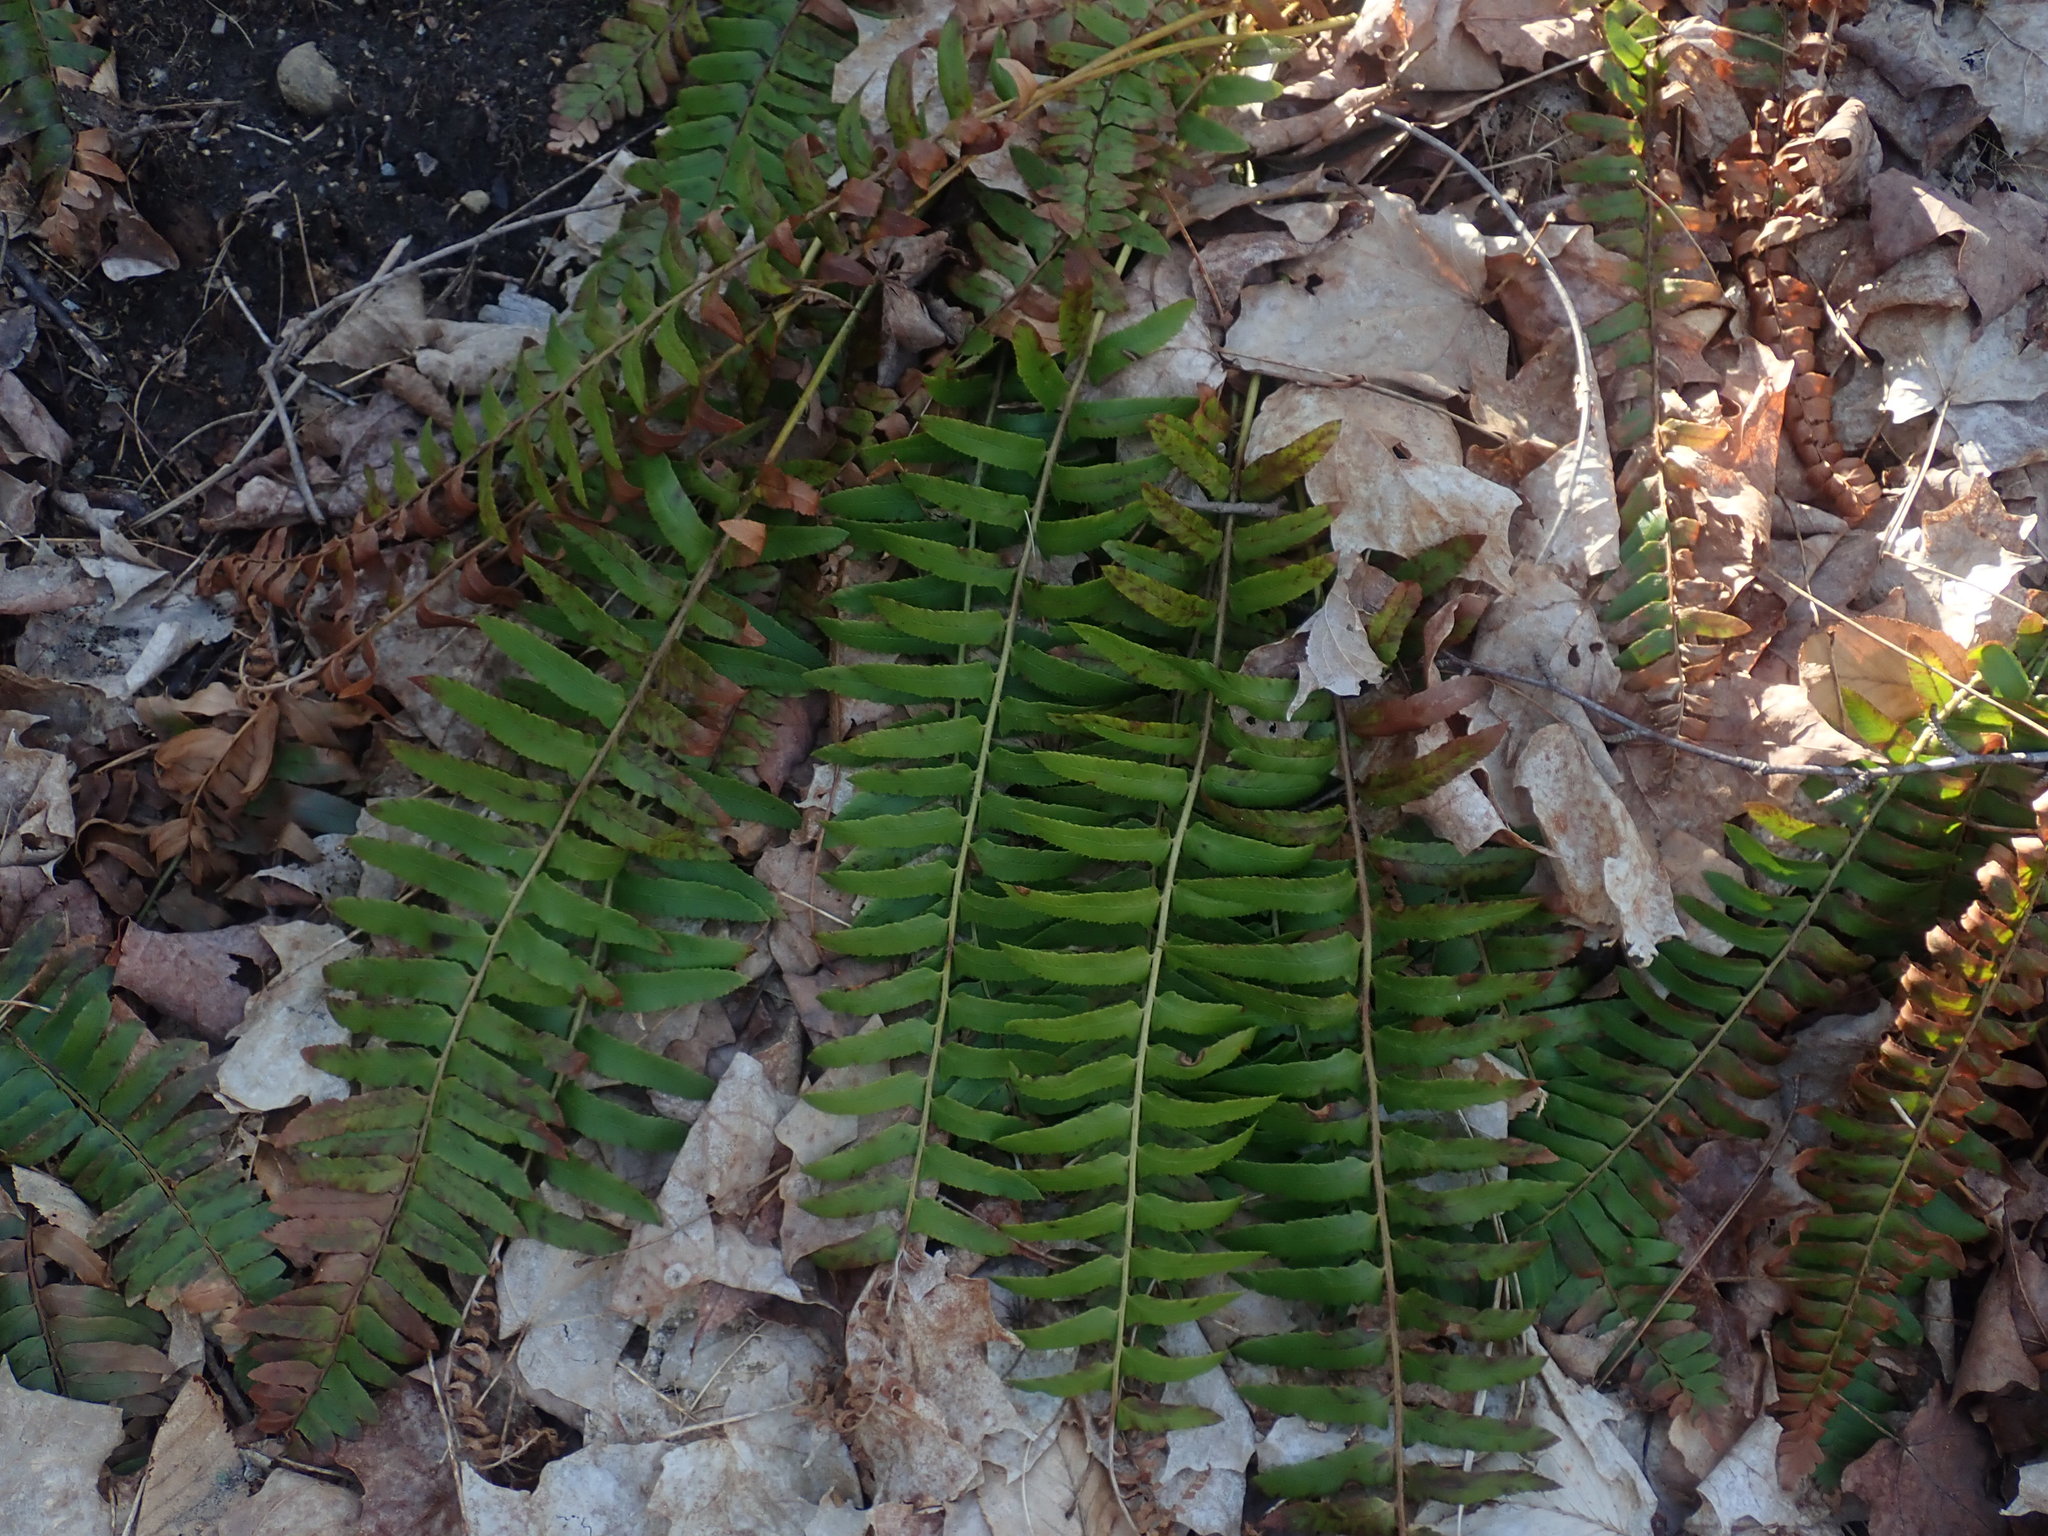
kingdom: Plantae
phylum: Tracheophyta
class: Polypodiopsida
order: Polypodiales
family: Dryopteridaceae
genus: Polystichum
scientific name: Polystichum acrostichoides
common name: Christmas fern
